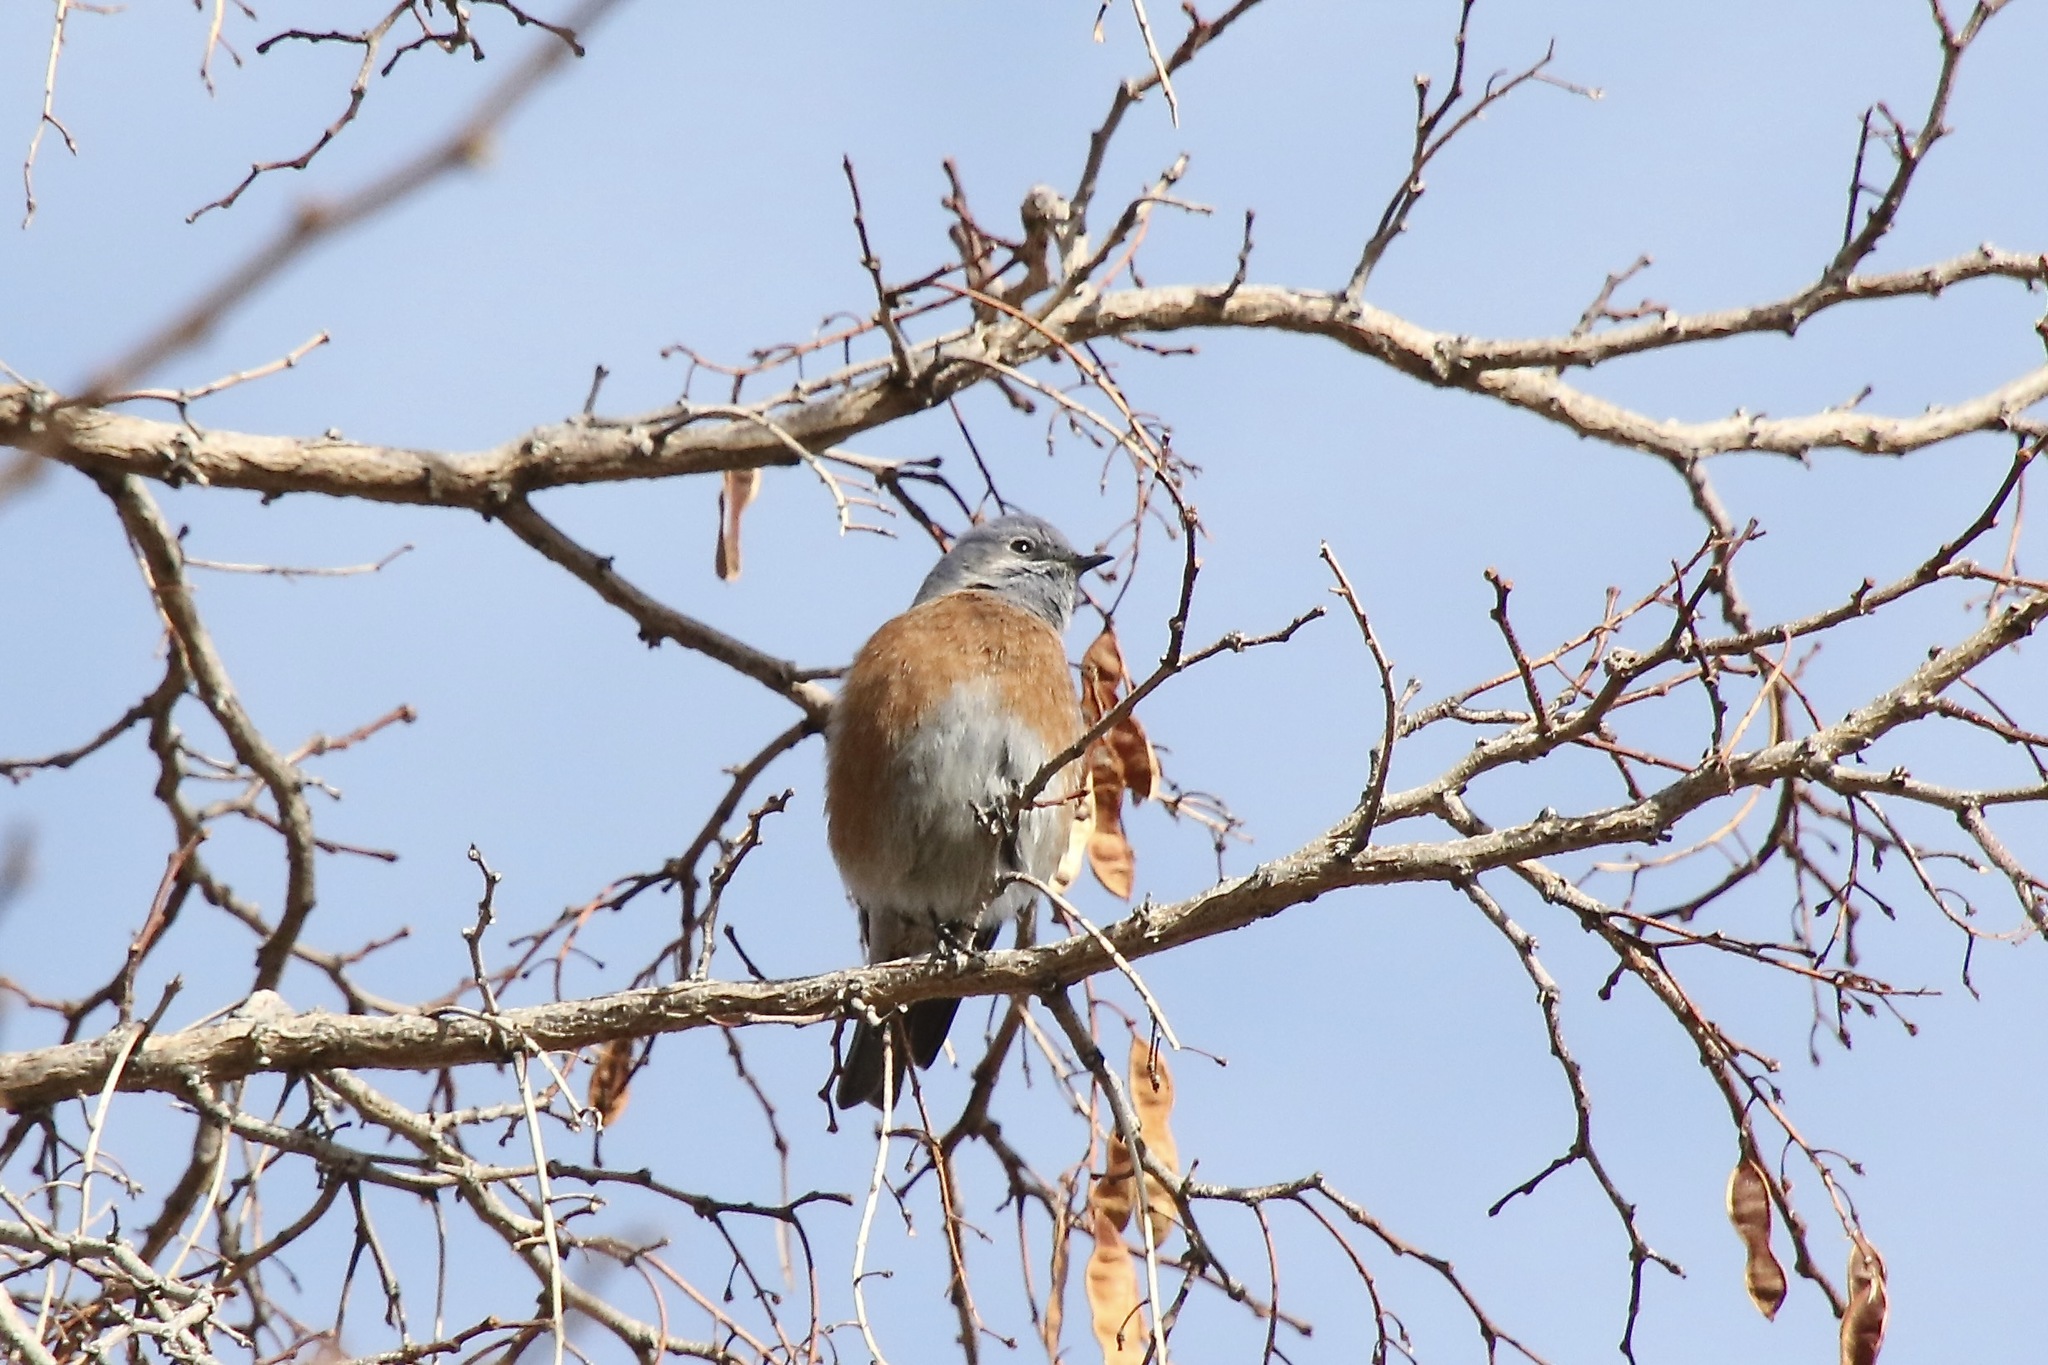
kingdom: Animalia
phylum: Chordata
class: Aves
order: Passeriformes
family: Turdidae
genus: Sialia
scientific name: Sialia mexicana
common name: Western bluebird
